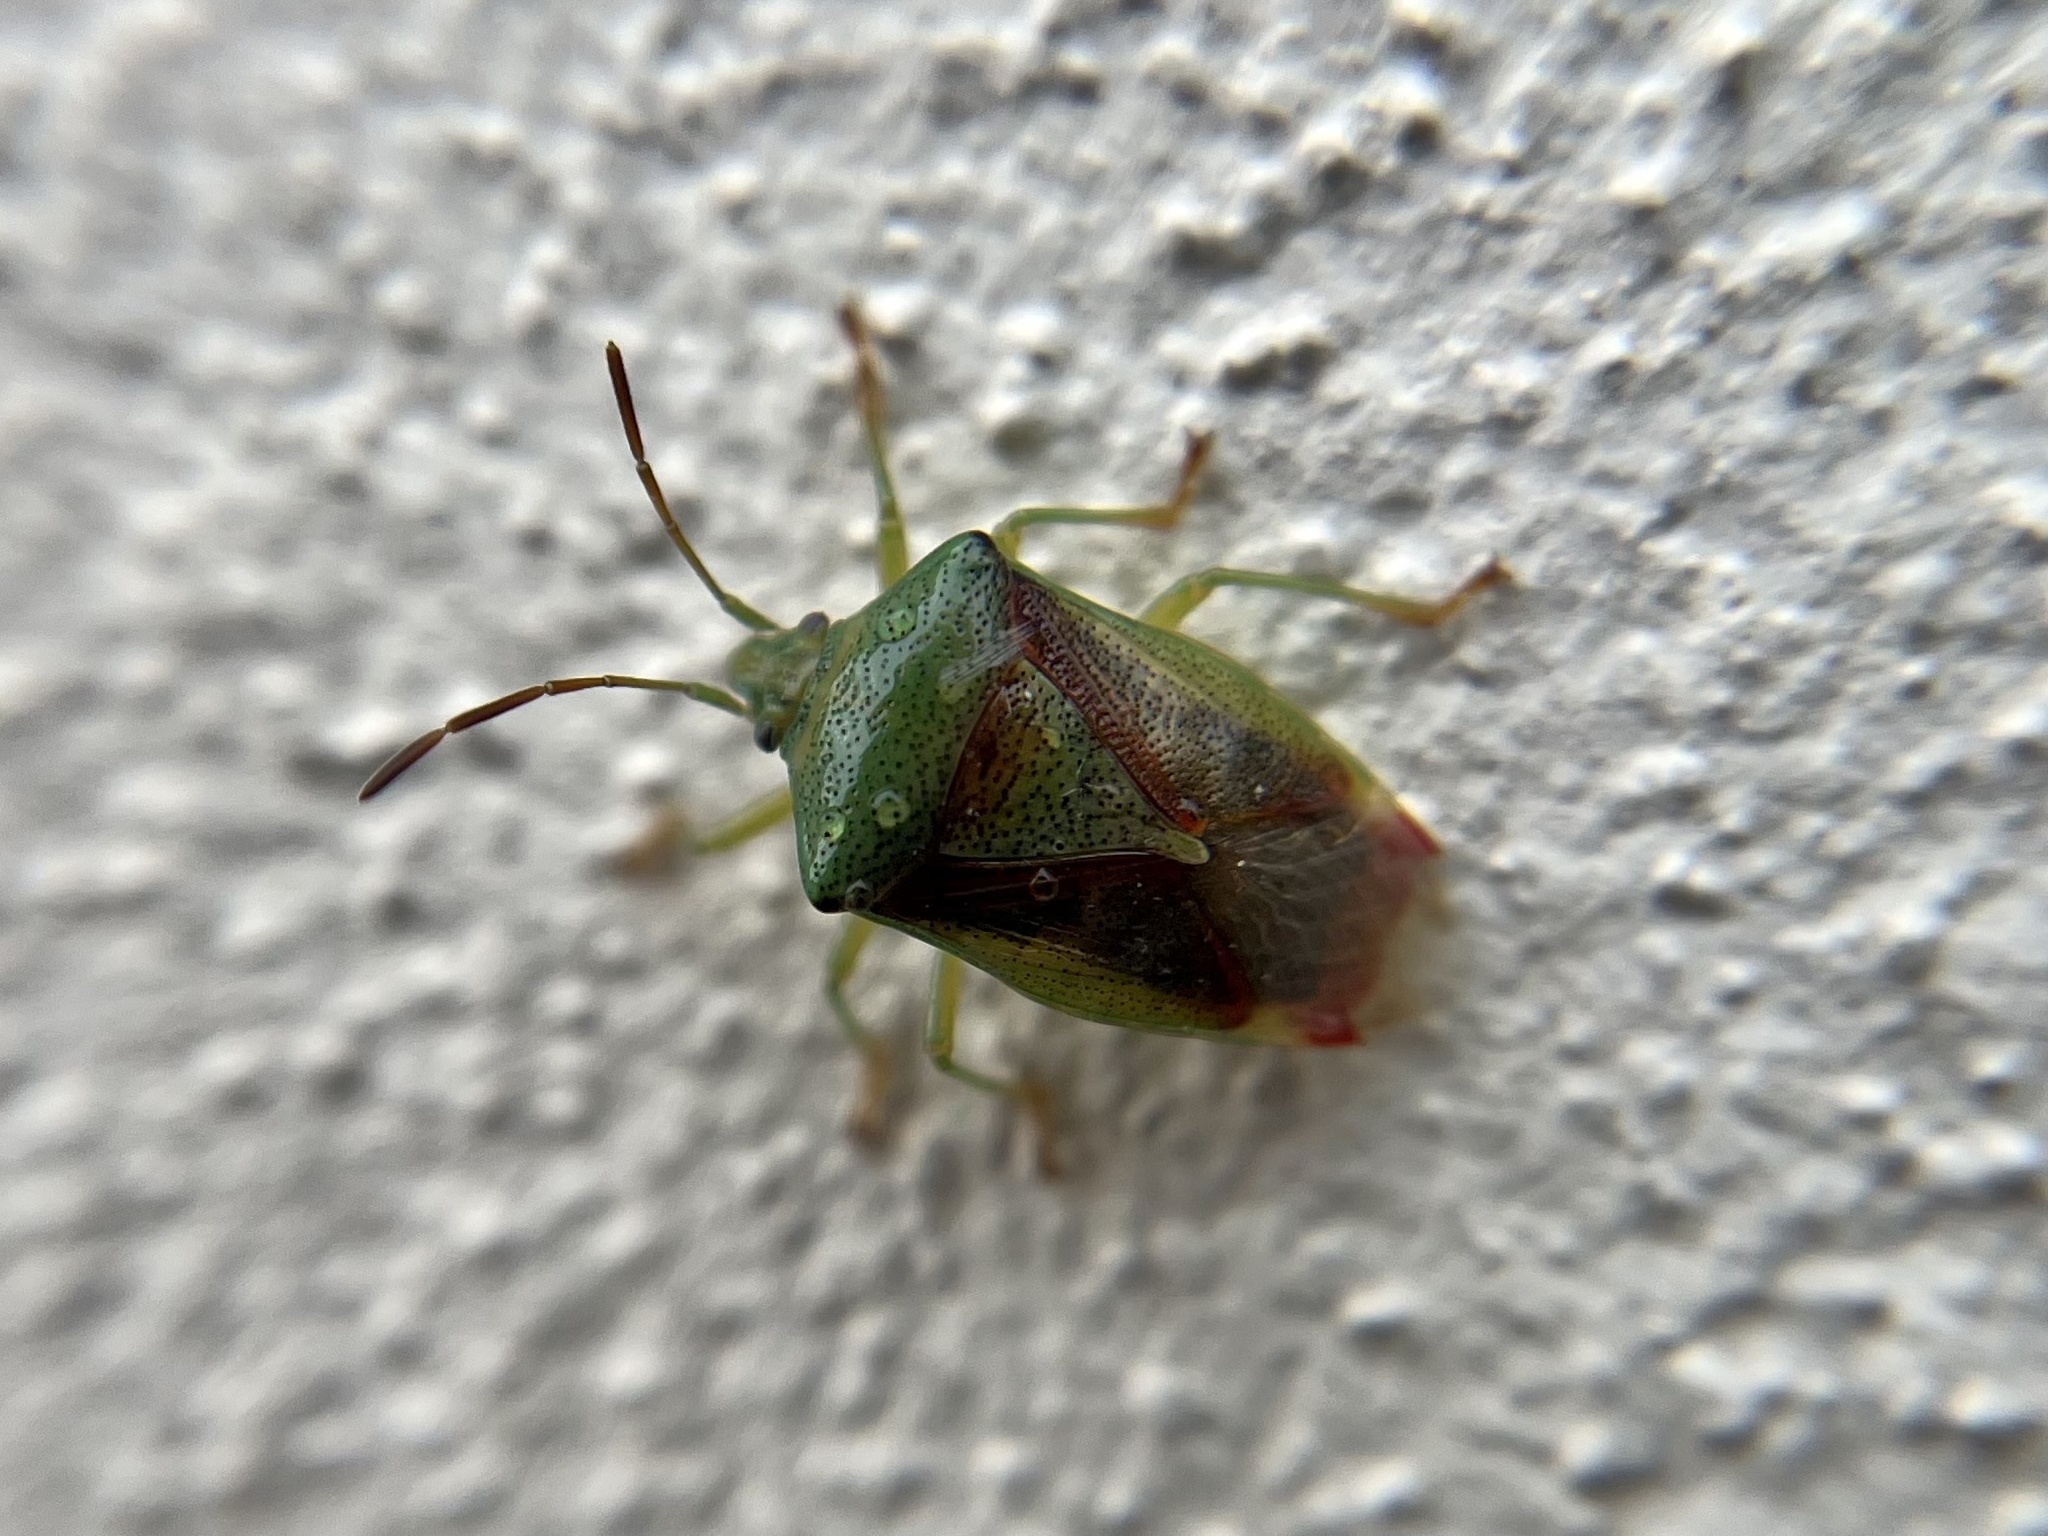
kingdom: Animalia
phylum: Arthropoda
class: Insecta
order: Hemiptera
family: Acanthosomatidae
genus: Elasmostethus
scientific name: Elasmostethus interstinctus
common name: Birch shieldbug
